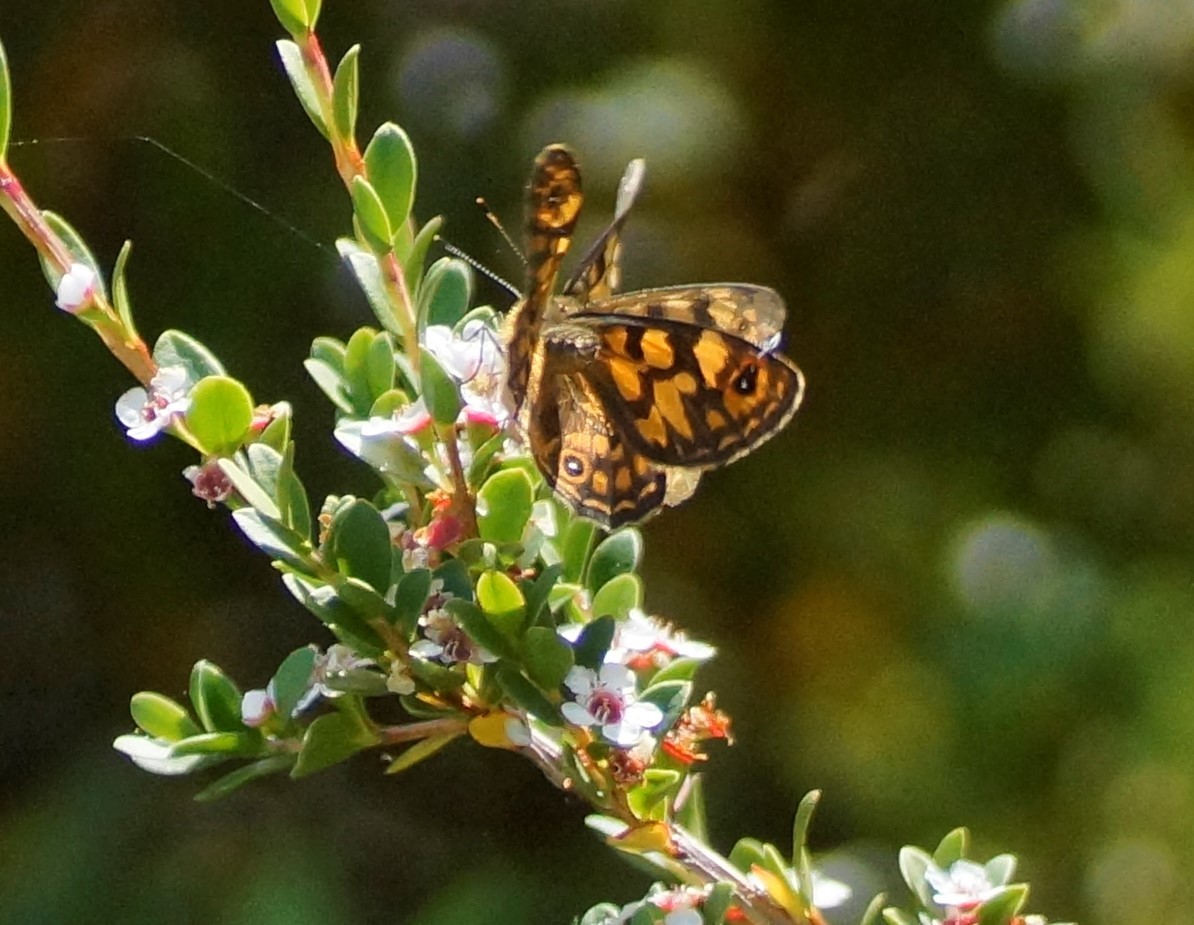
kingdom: Animalia
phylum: Arthropoda
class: Insecta
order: Lepidoptera
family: Nymphalidae
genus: Oreixenica
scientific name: Oreixenica correae
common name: Correa brown
